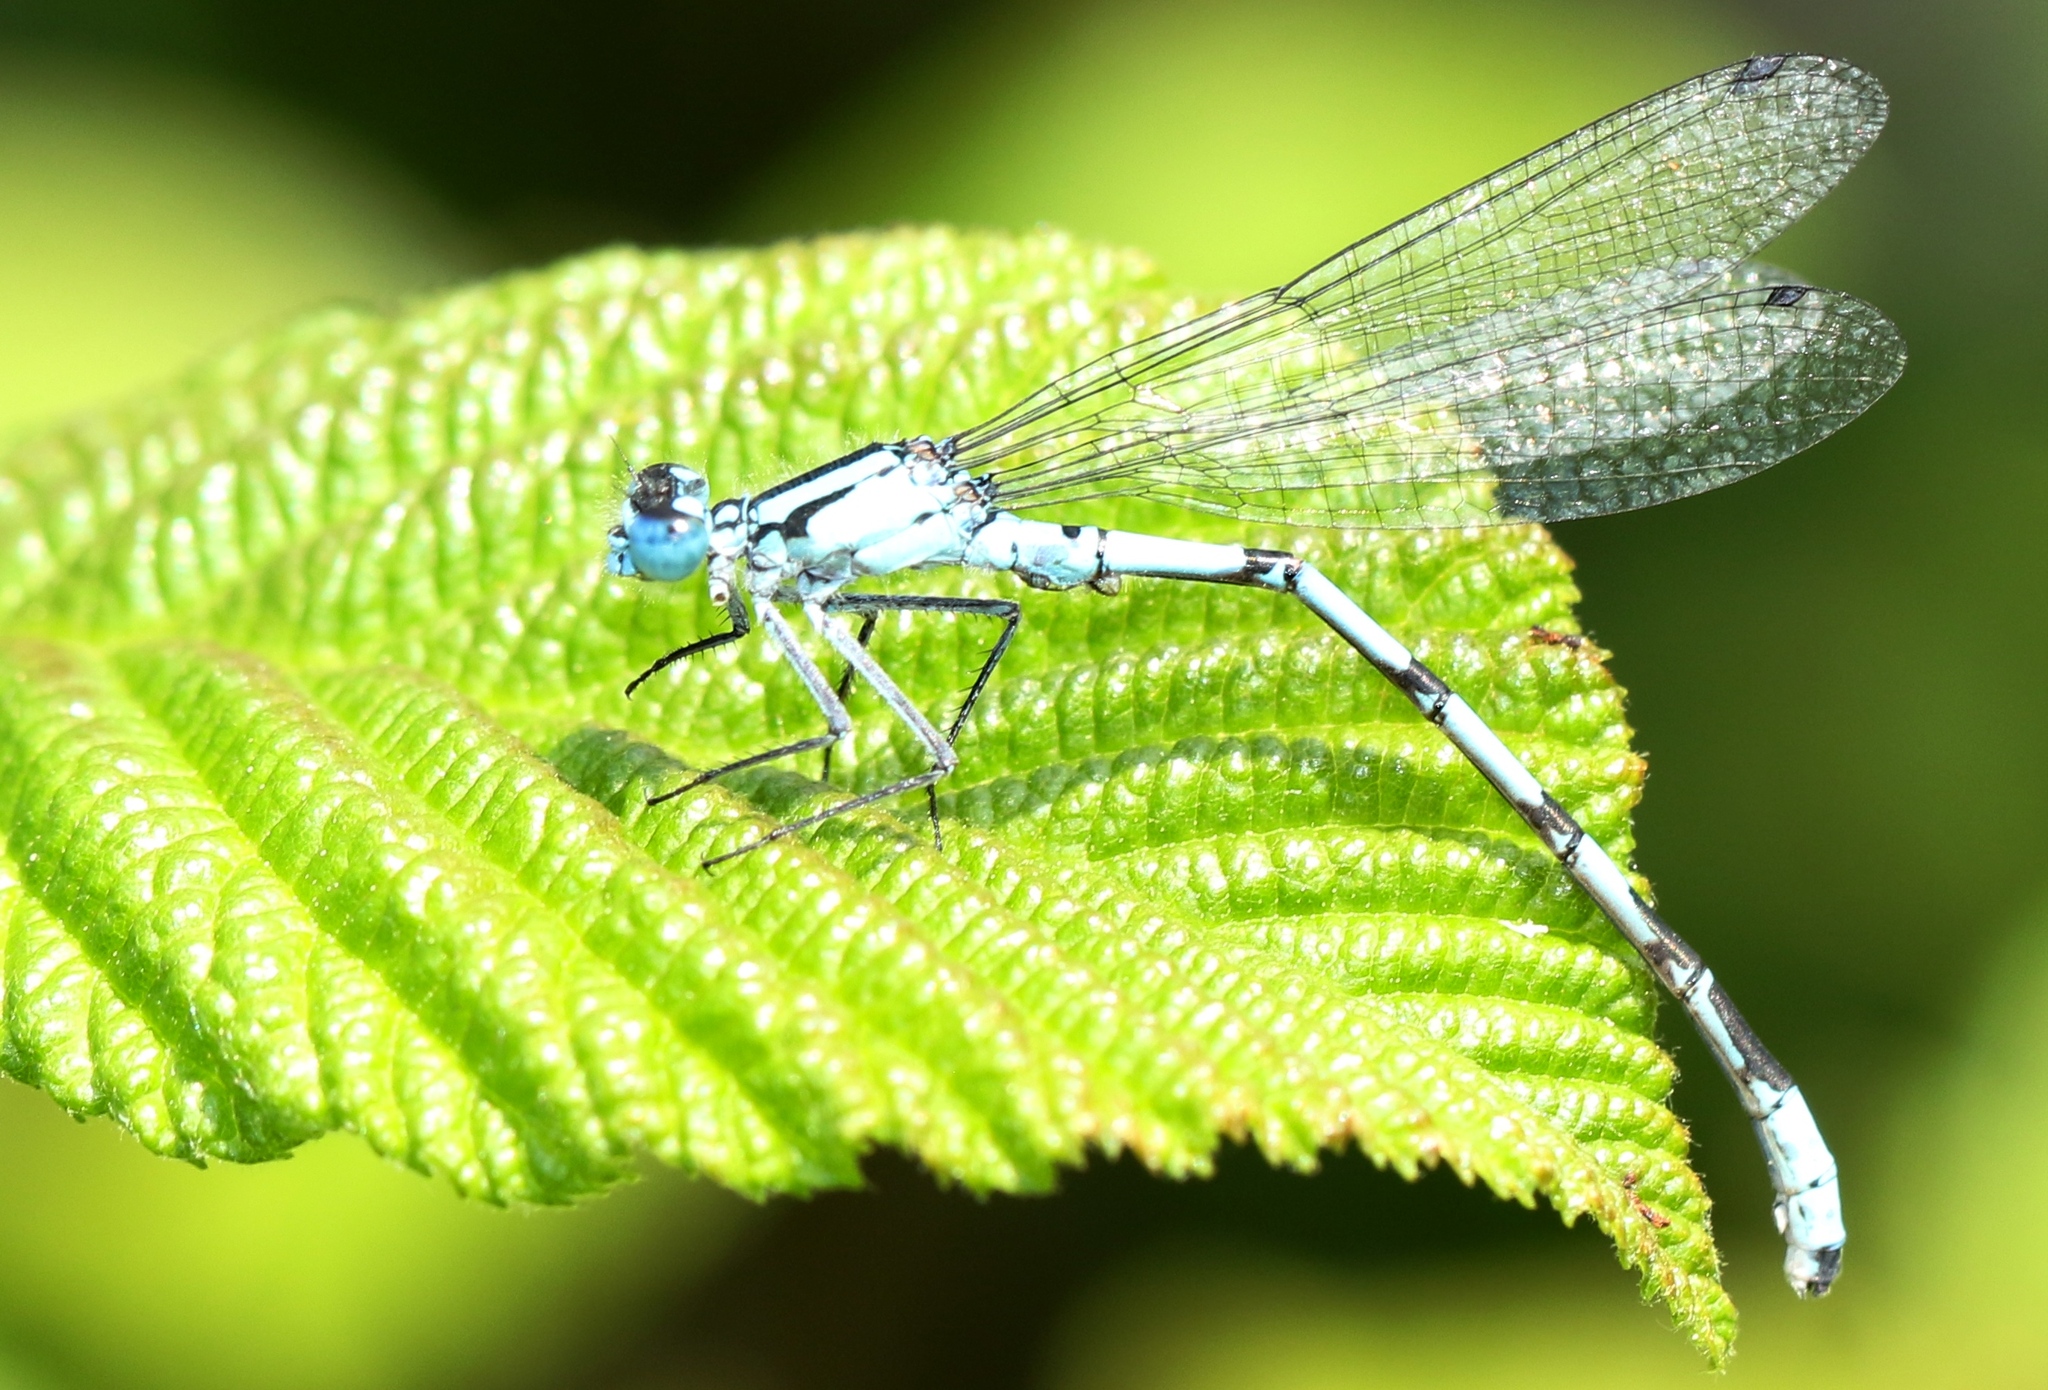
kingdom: Animalia
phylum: Arthropoda
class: Insecta
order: Odonata
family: Coenagrionidae
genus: Enallagma
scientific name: Enallagma boreale
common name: Boreal bluet
